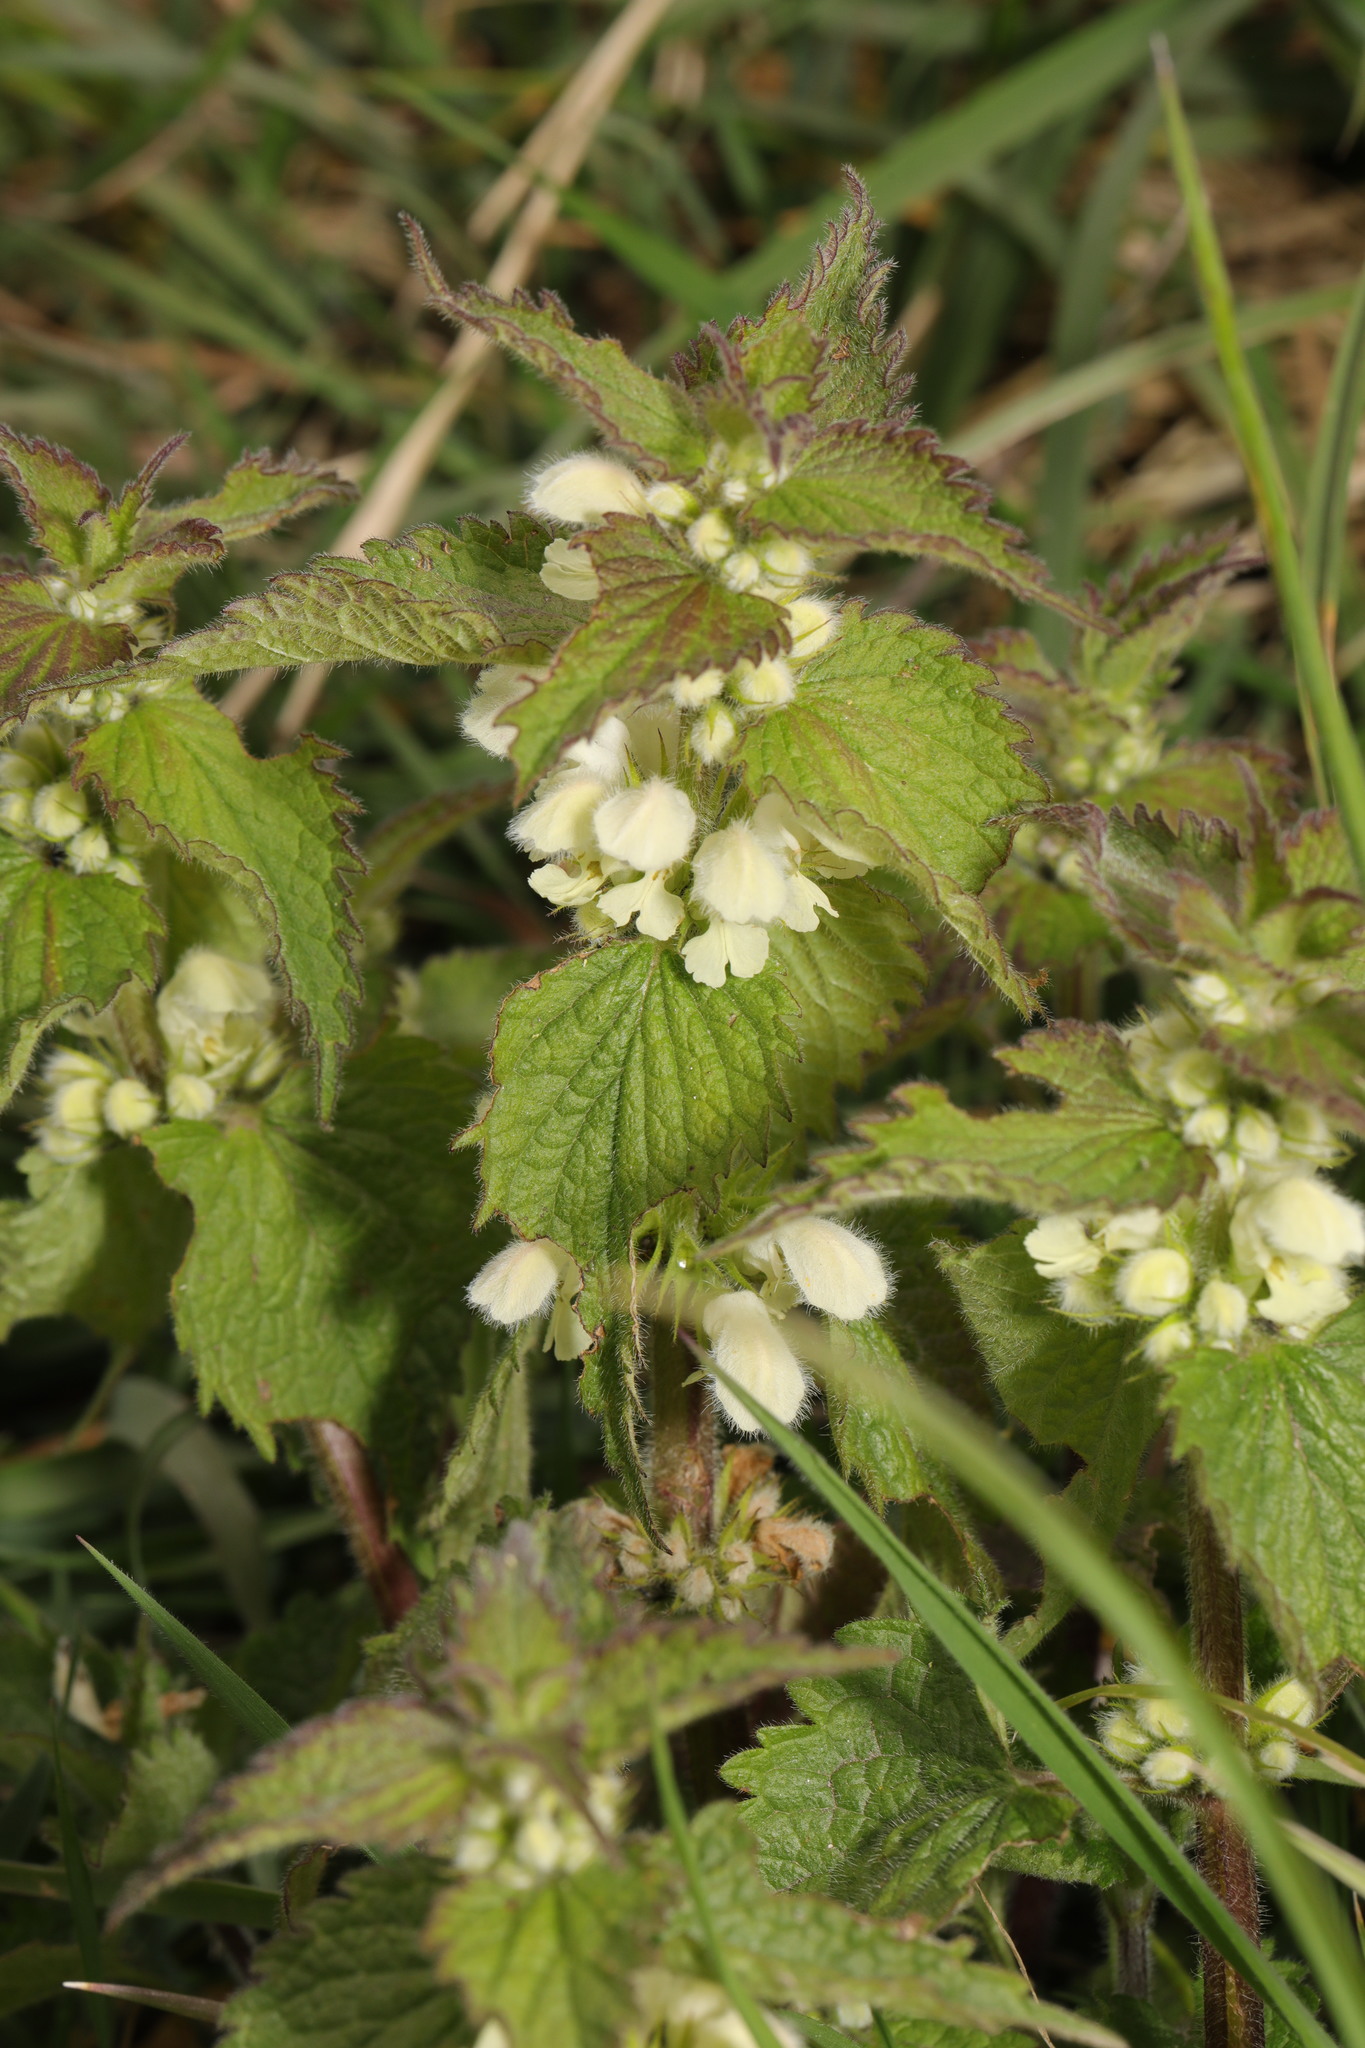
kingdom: Plantae
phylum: Tracheophyta
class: Magnoliopsida
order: Lamiales
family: Lamiaceae
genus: Lamium
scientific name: Lamium album
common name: White dead-nettle
